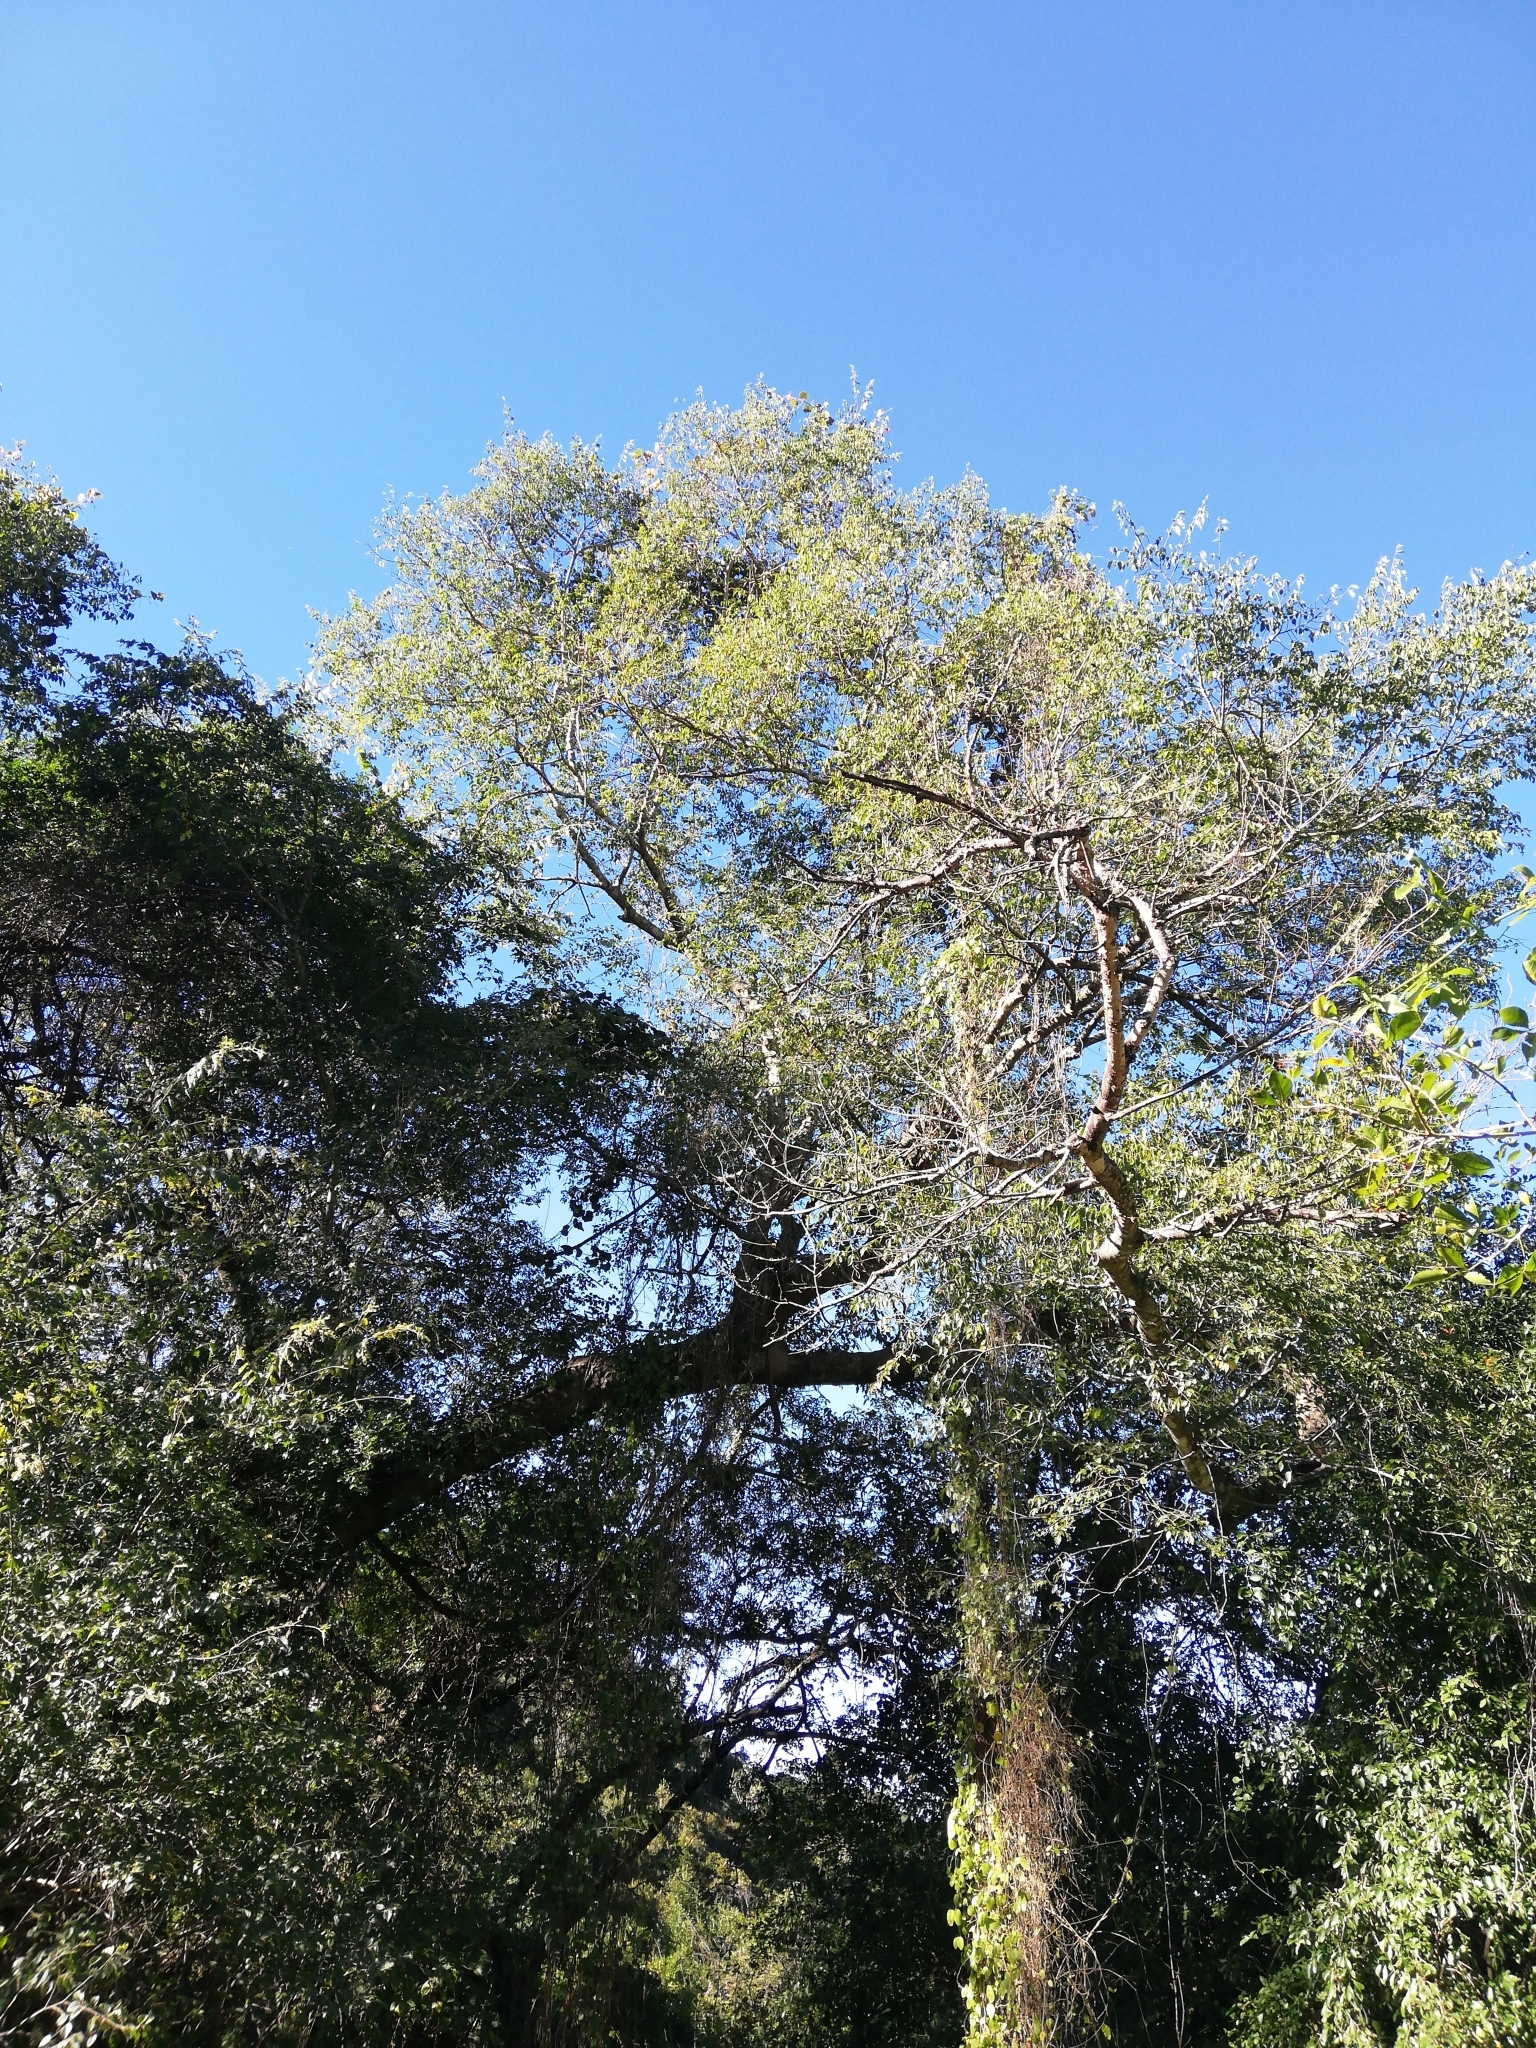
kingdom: Plantae
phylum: Tracheophyta
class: Magnoliopsida
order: Rosales
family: Cannabaceae
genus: Celtis
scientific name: Celtis africana
